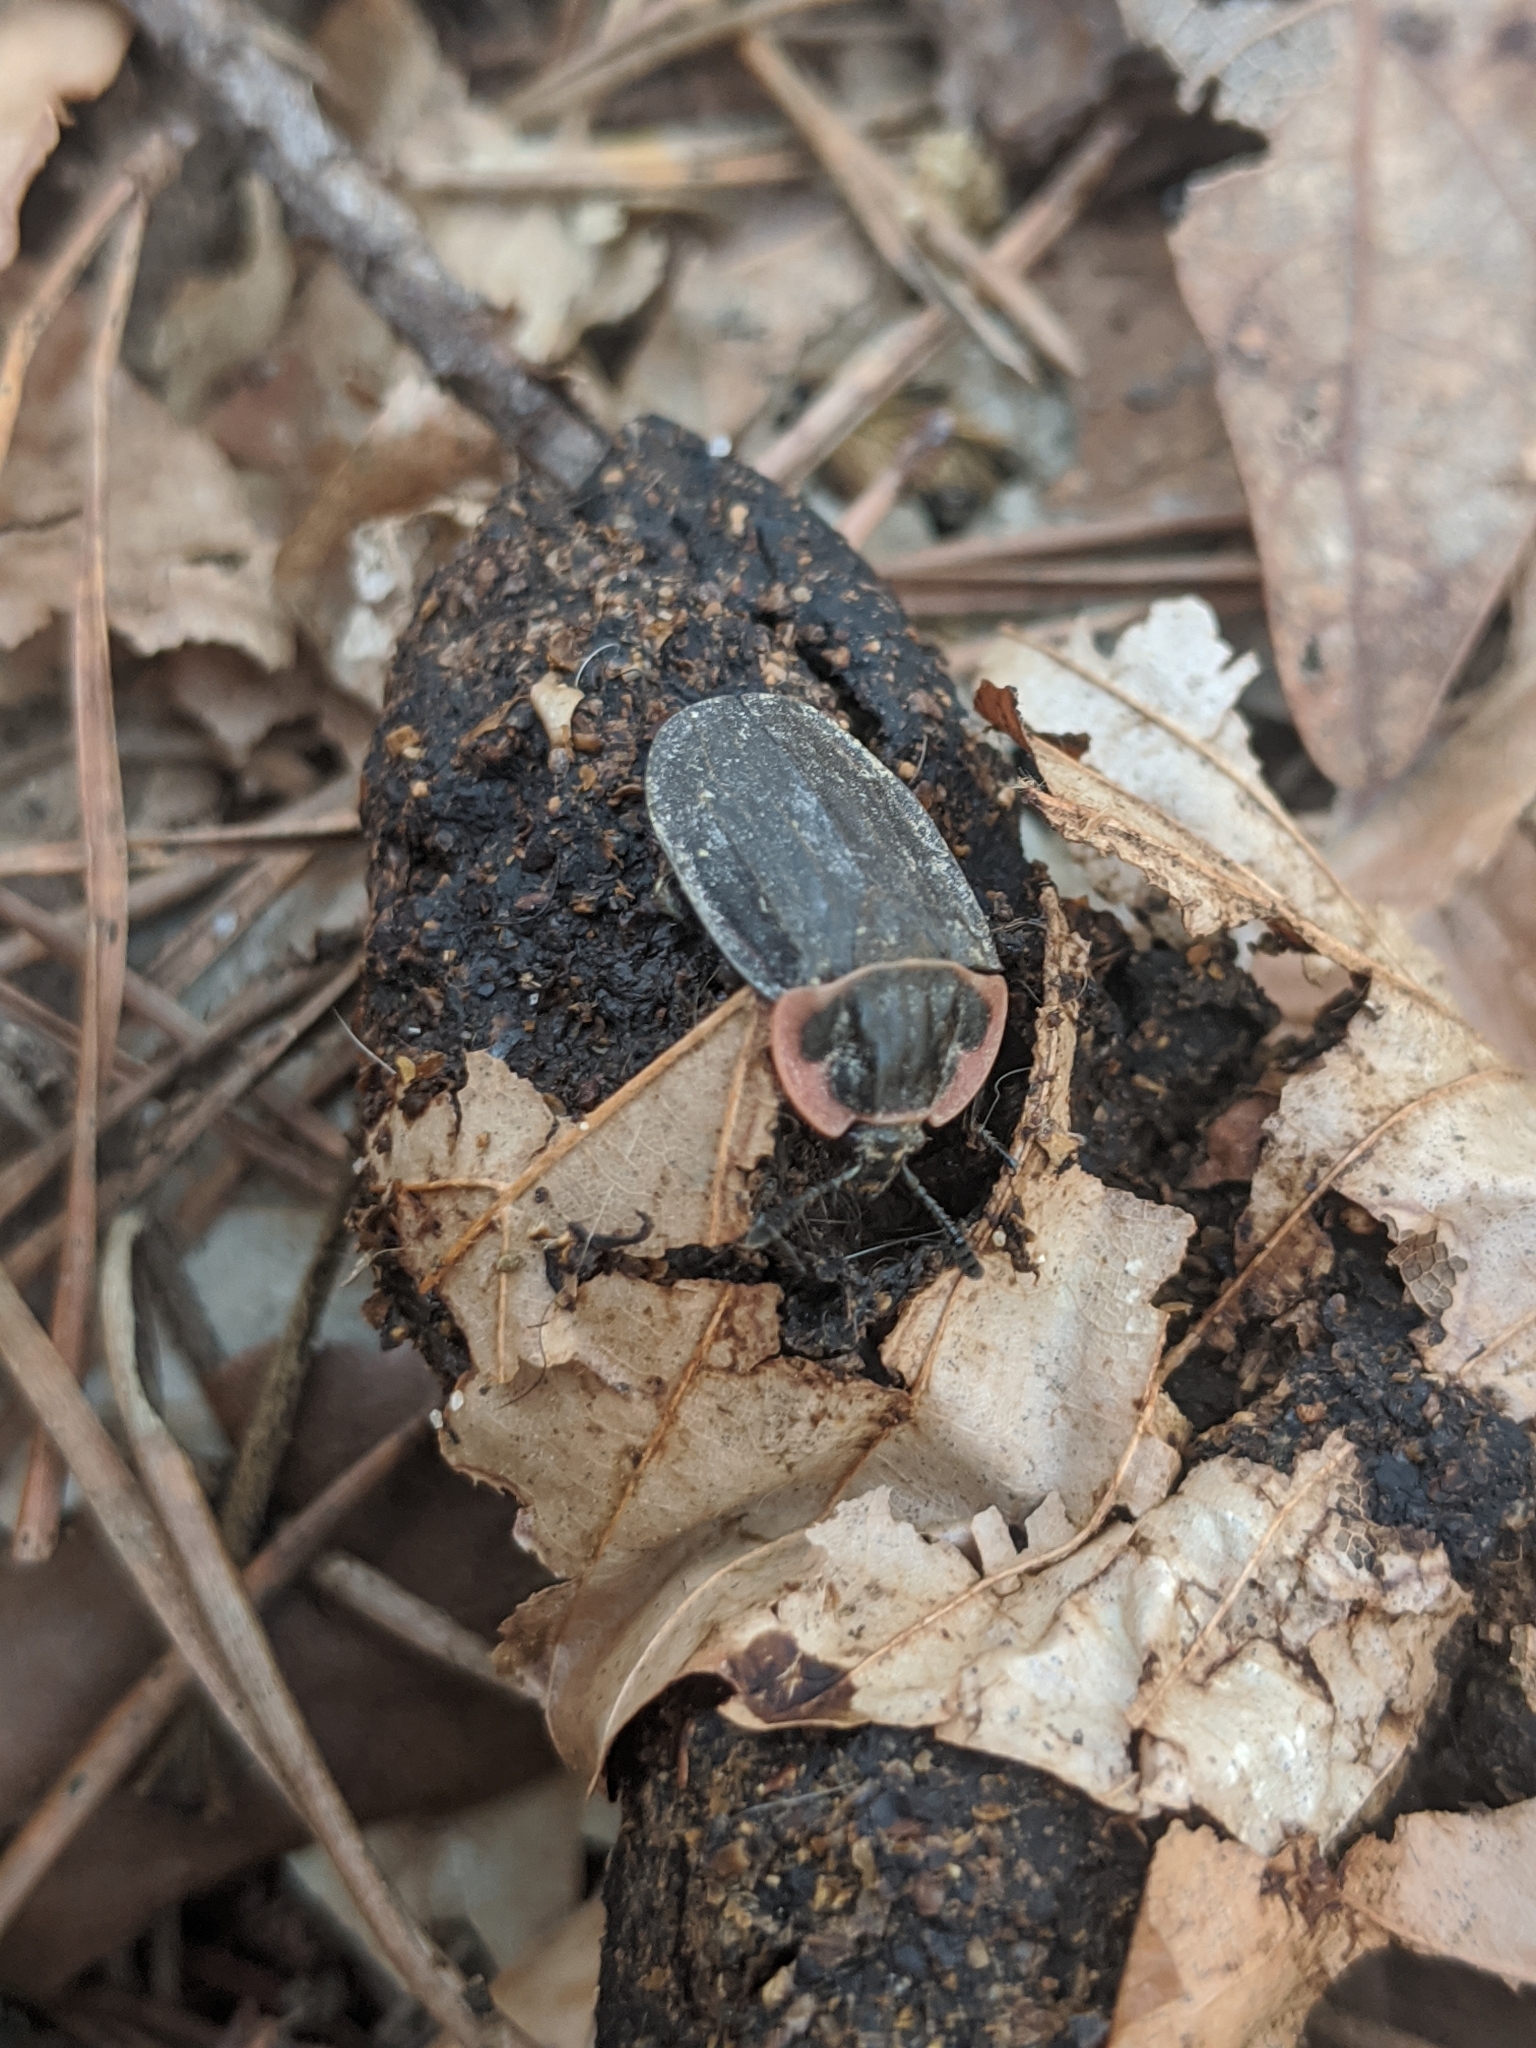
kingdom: Animalia
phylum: Arthropoda
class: Insecta
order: Coleoptera
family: Staphylinidae
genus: Oiceoptoma
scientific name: Oiceoptoma noveboracense
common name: Margined carrion beetle
